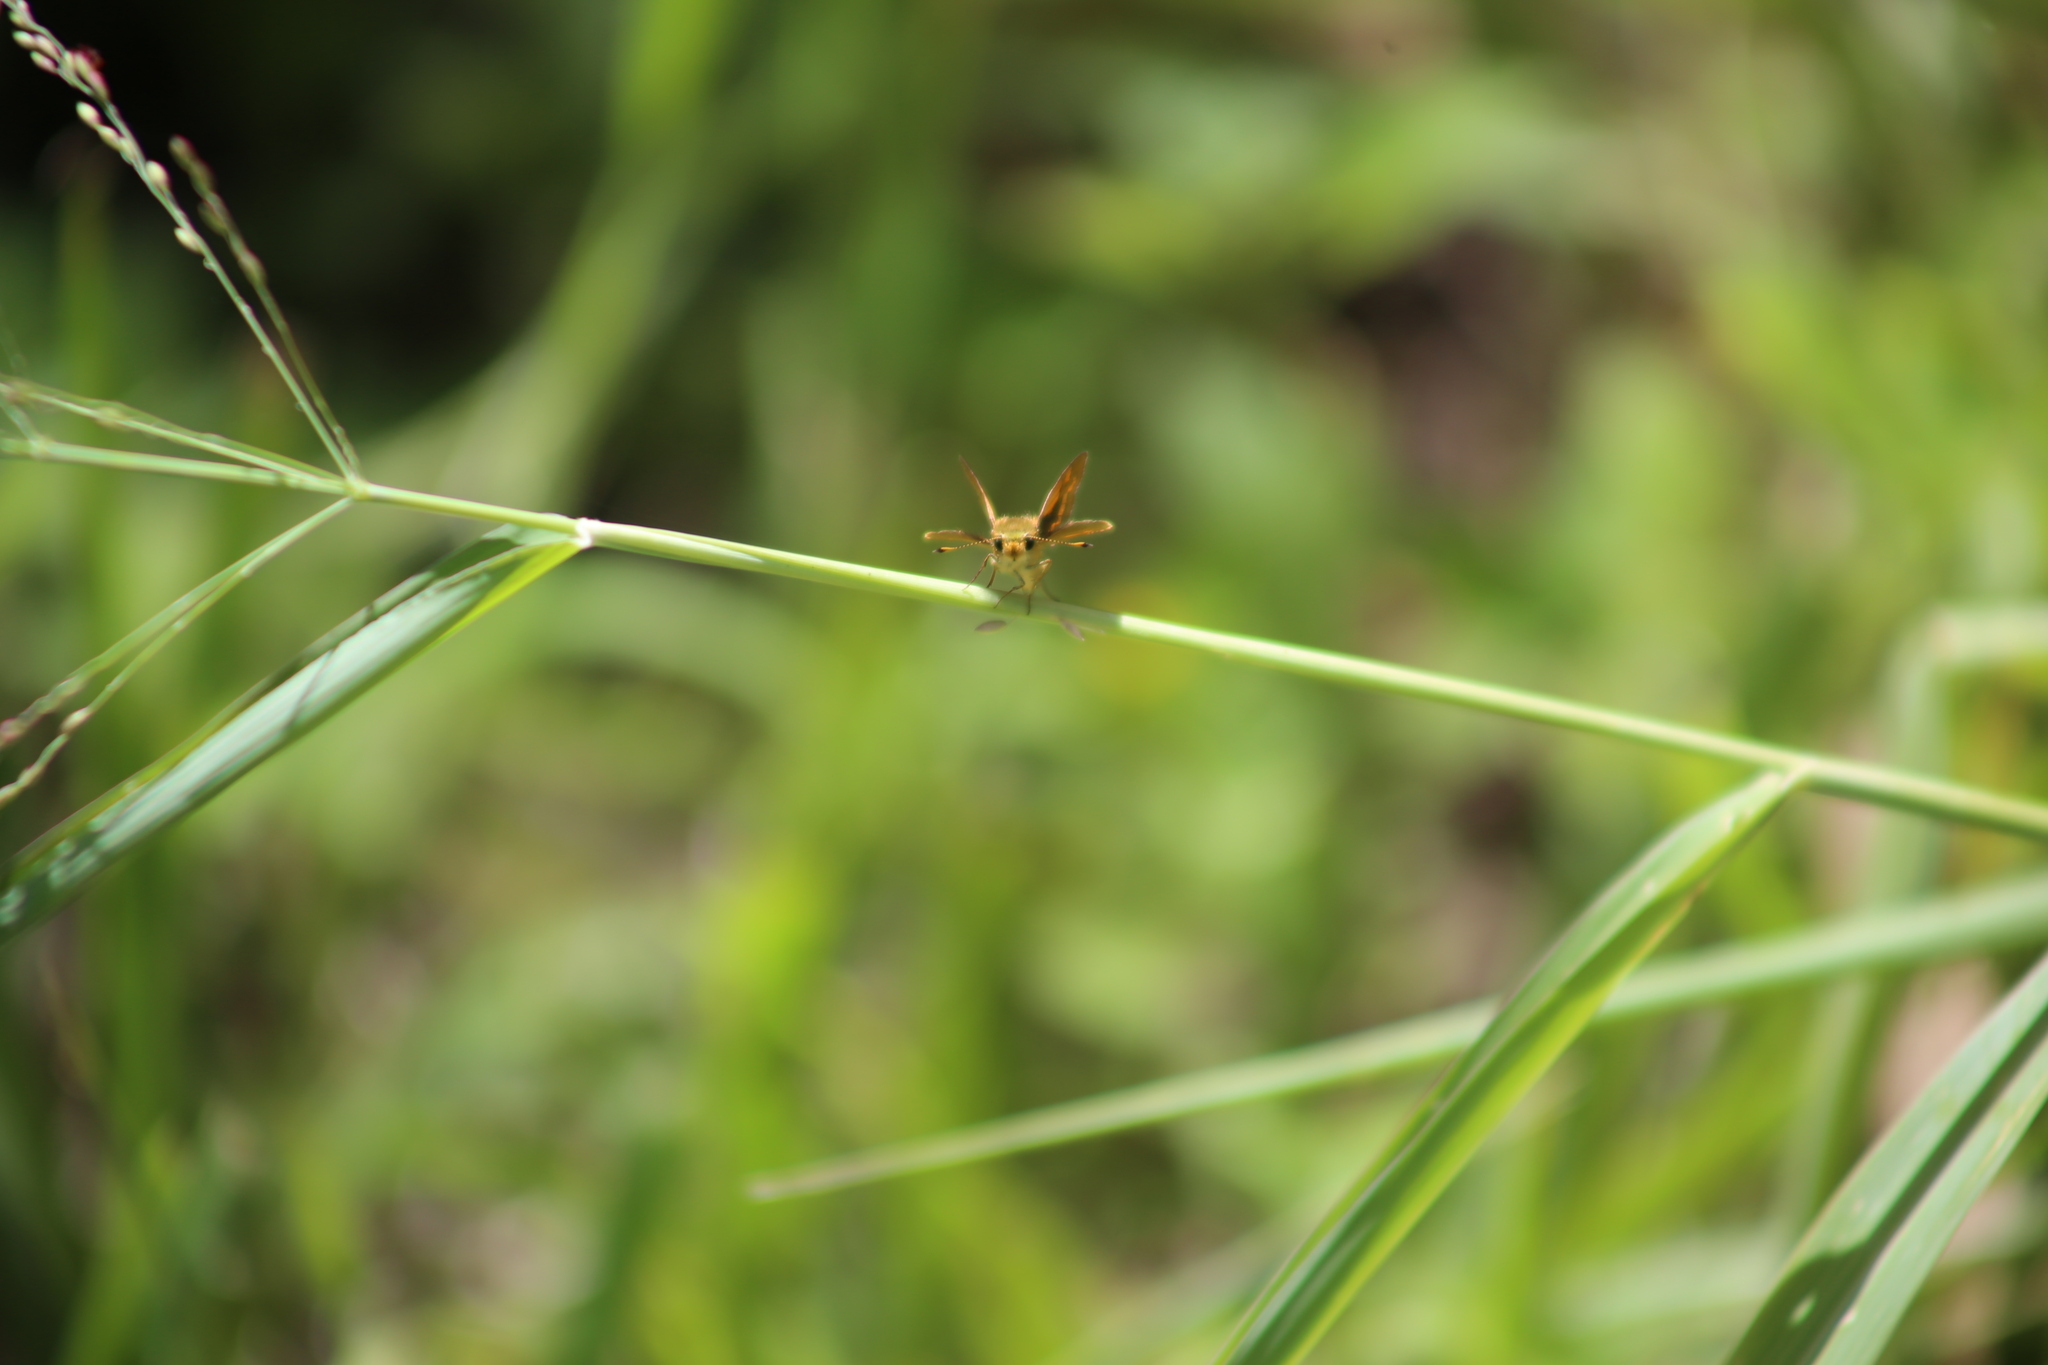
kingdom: Animalia
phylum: Arthropoda
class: Insecta
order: Lepidoptera
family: Hesperiidae
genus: Ocybadistes
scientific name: Ocybadistes walkeri
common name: Yellow-banded dart
